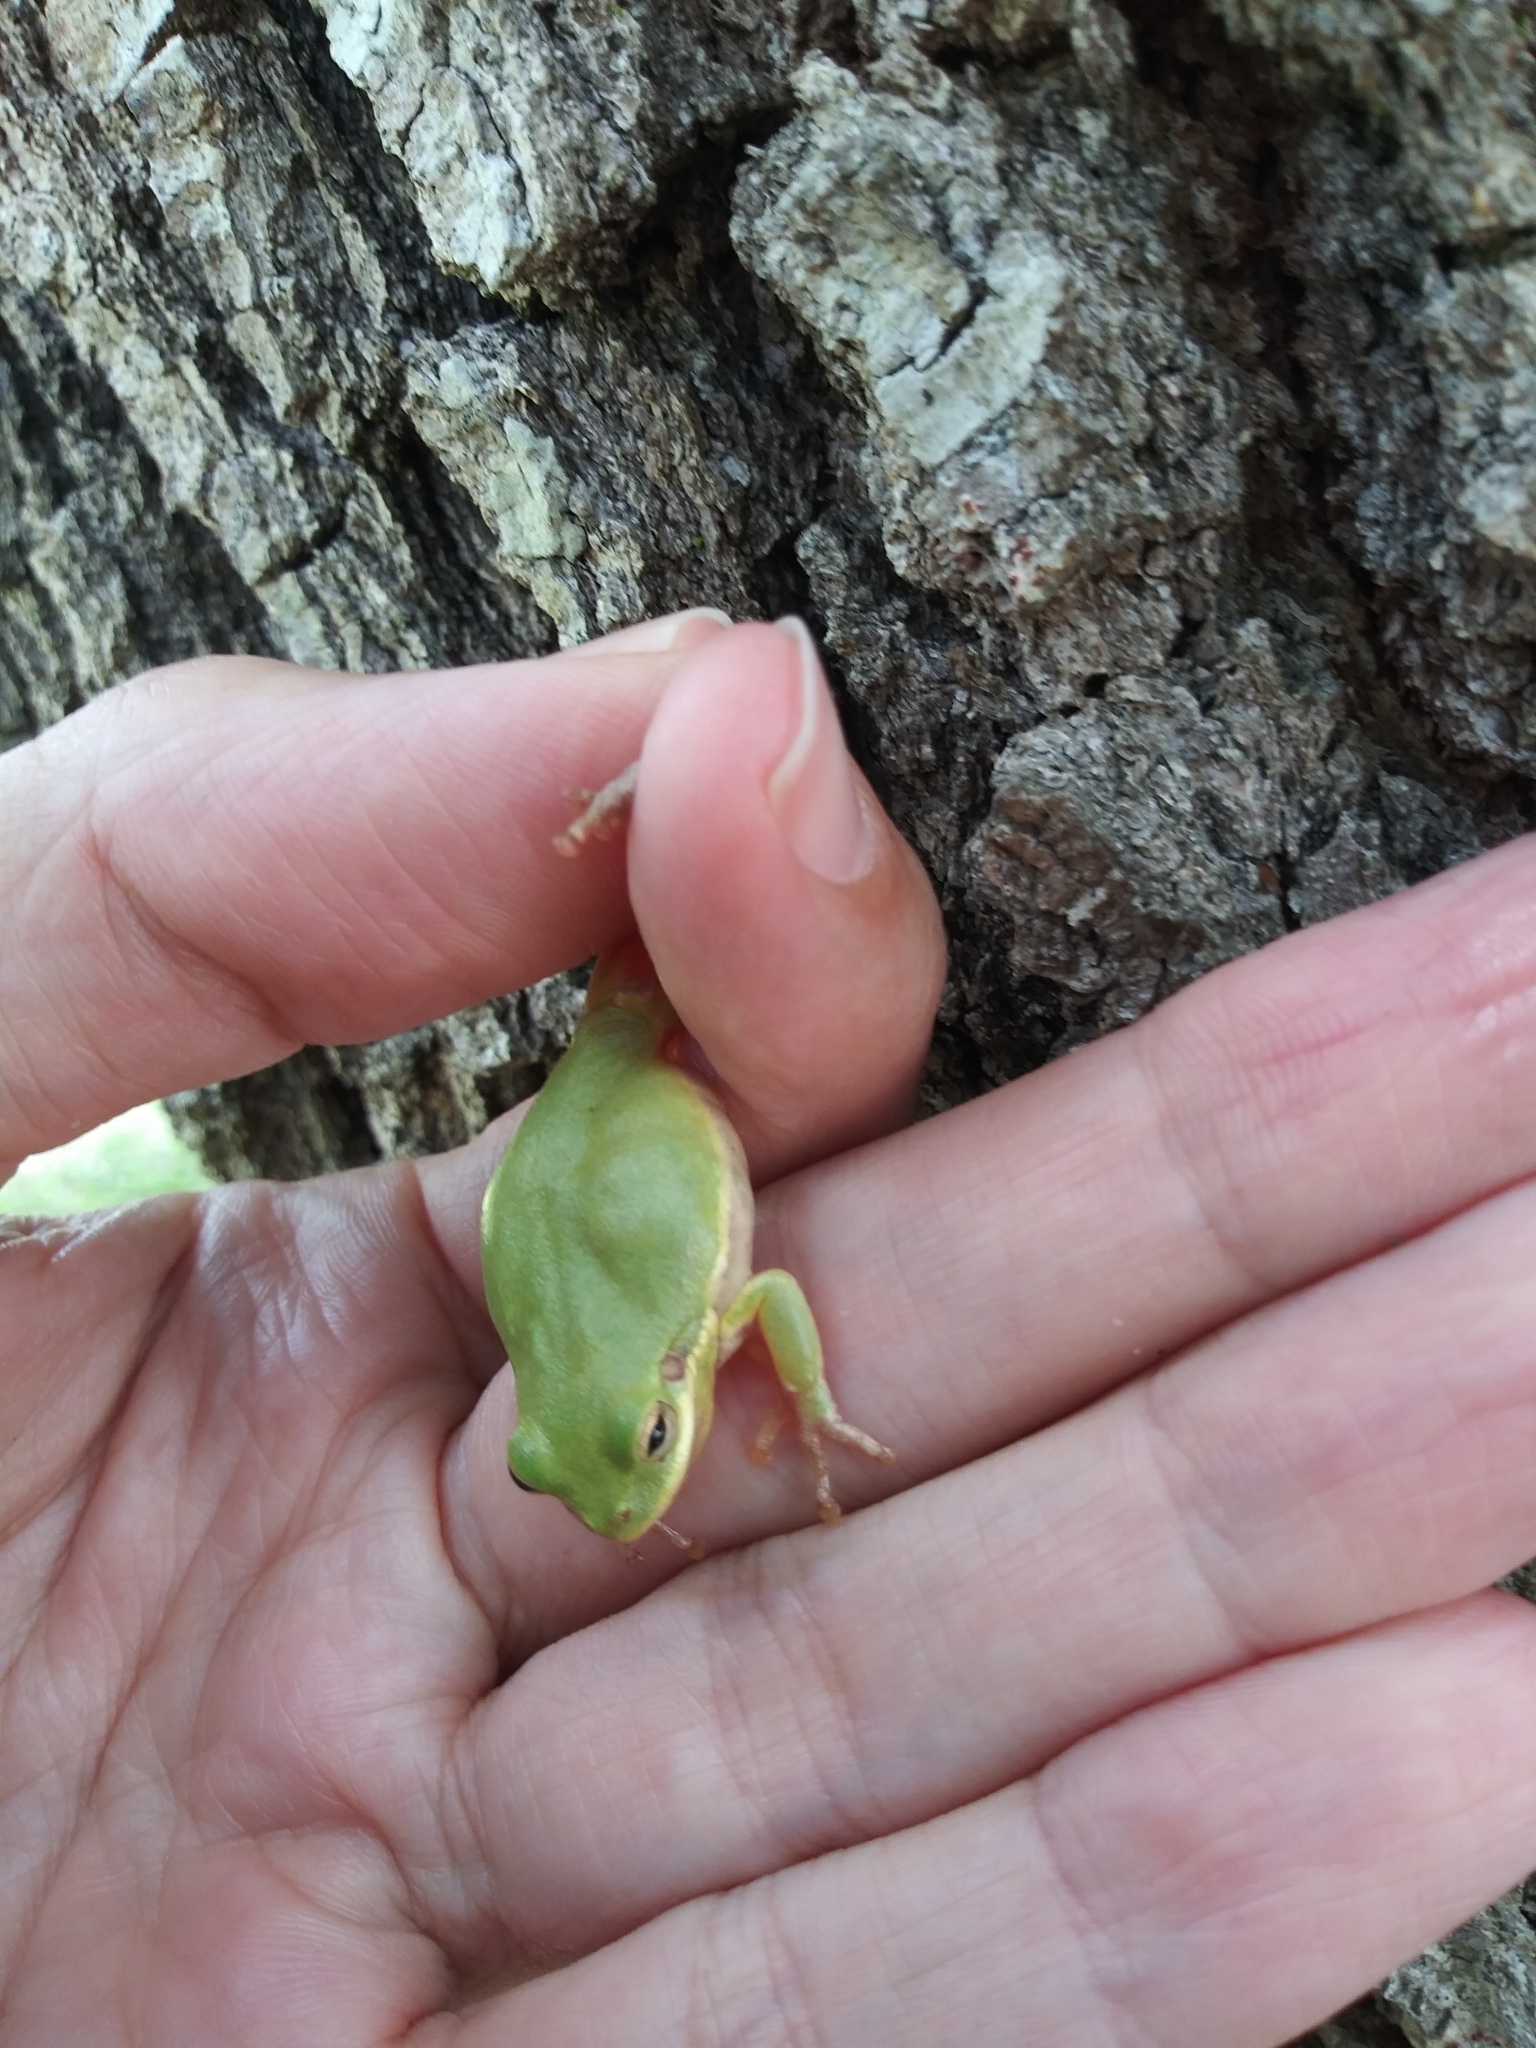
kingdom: Animalia
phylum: Chordata
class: Amphibia
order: Anura
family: Hylidae
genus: Dryophytes
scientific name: Dryophytes squirellus
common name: Squirrel treefrog
